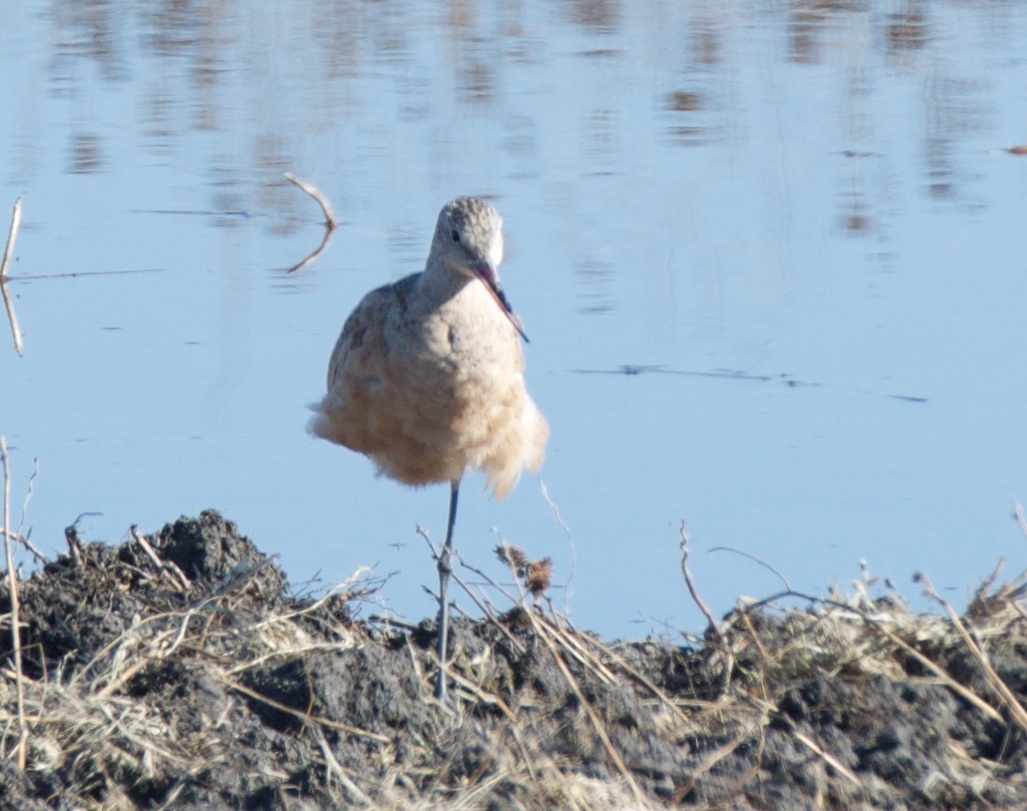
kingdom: Animalia
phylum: Chordata
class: Aves
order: Charadriiformes
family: Scolopacidae
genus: Limosa
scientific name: Limosa fedoa
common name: Marbled godwit
